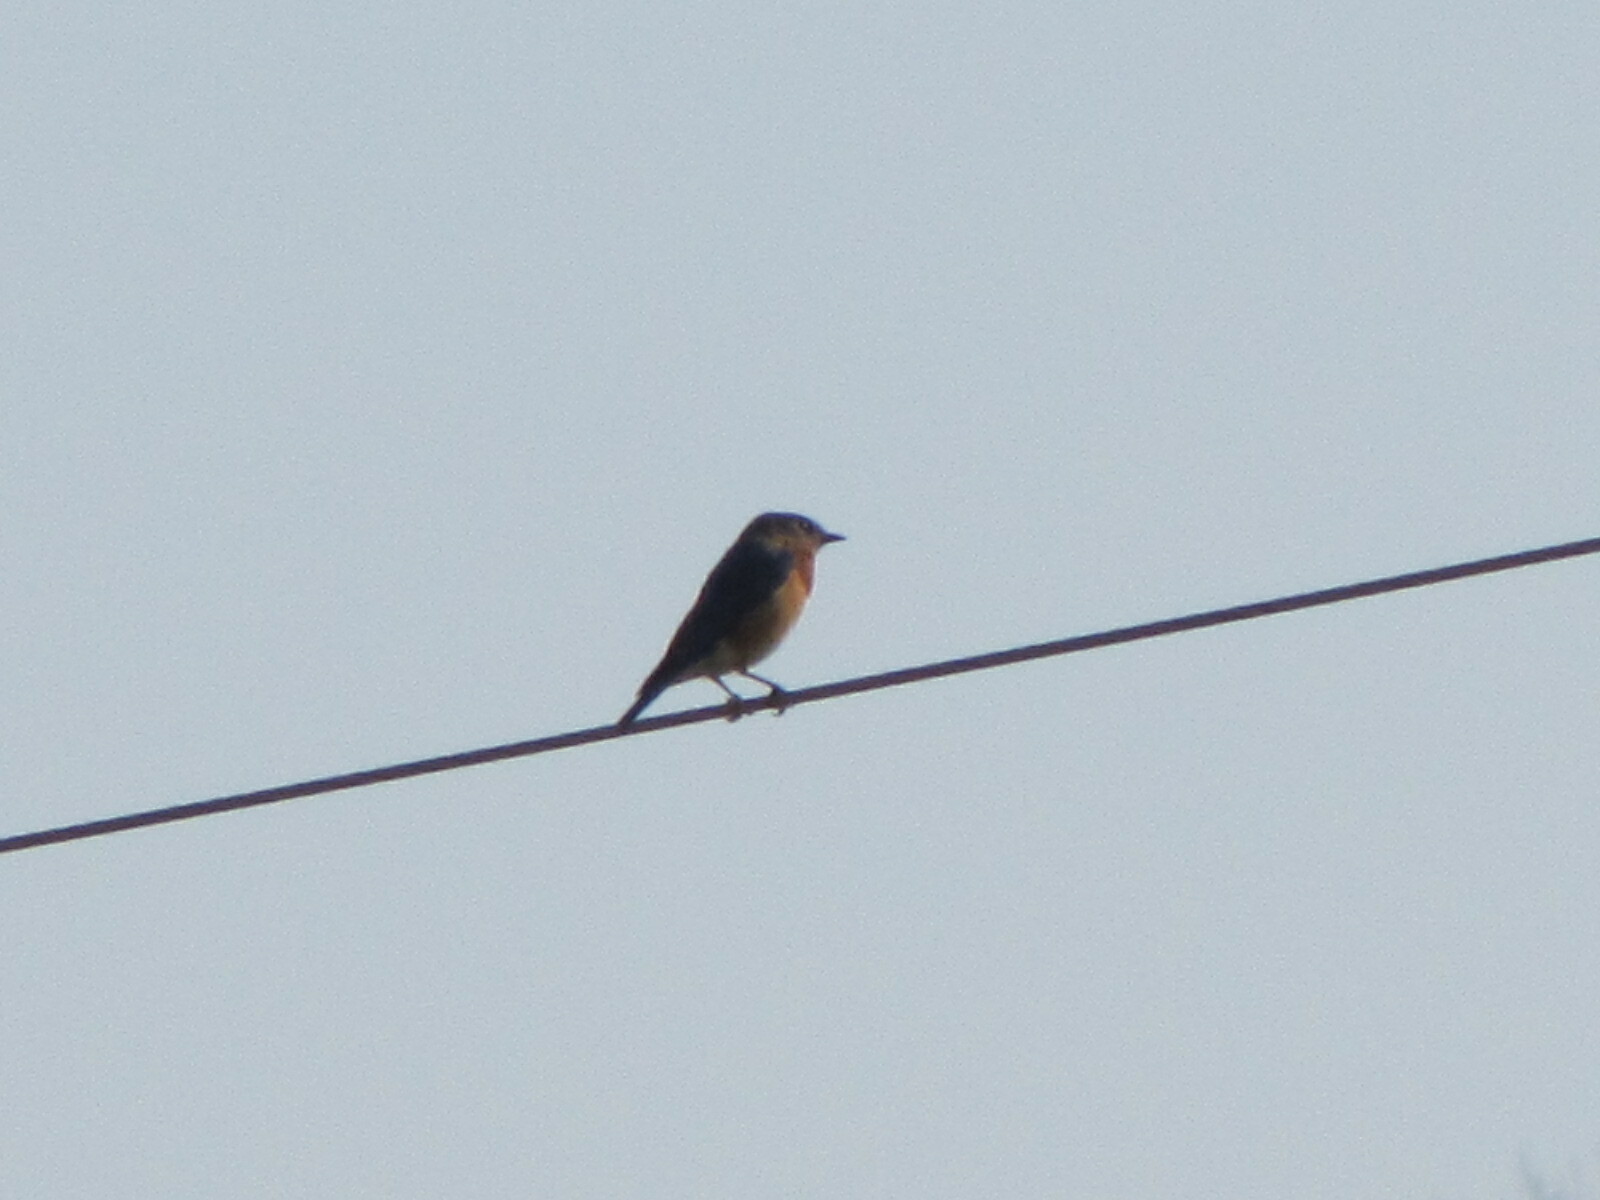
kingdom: Animalia
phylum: Chordata
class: Aves
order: Passeriformes
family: Turdidae
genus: Sialia
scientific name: Sialia sialis
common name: Eastern bluebird
